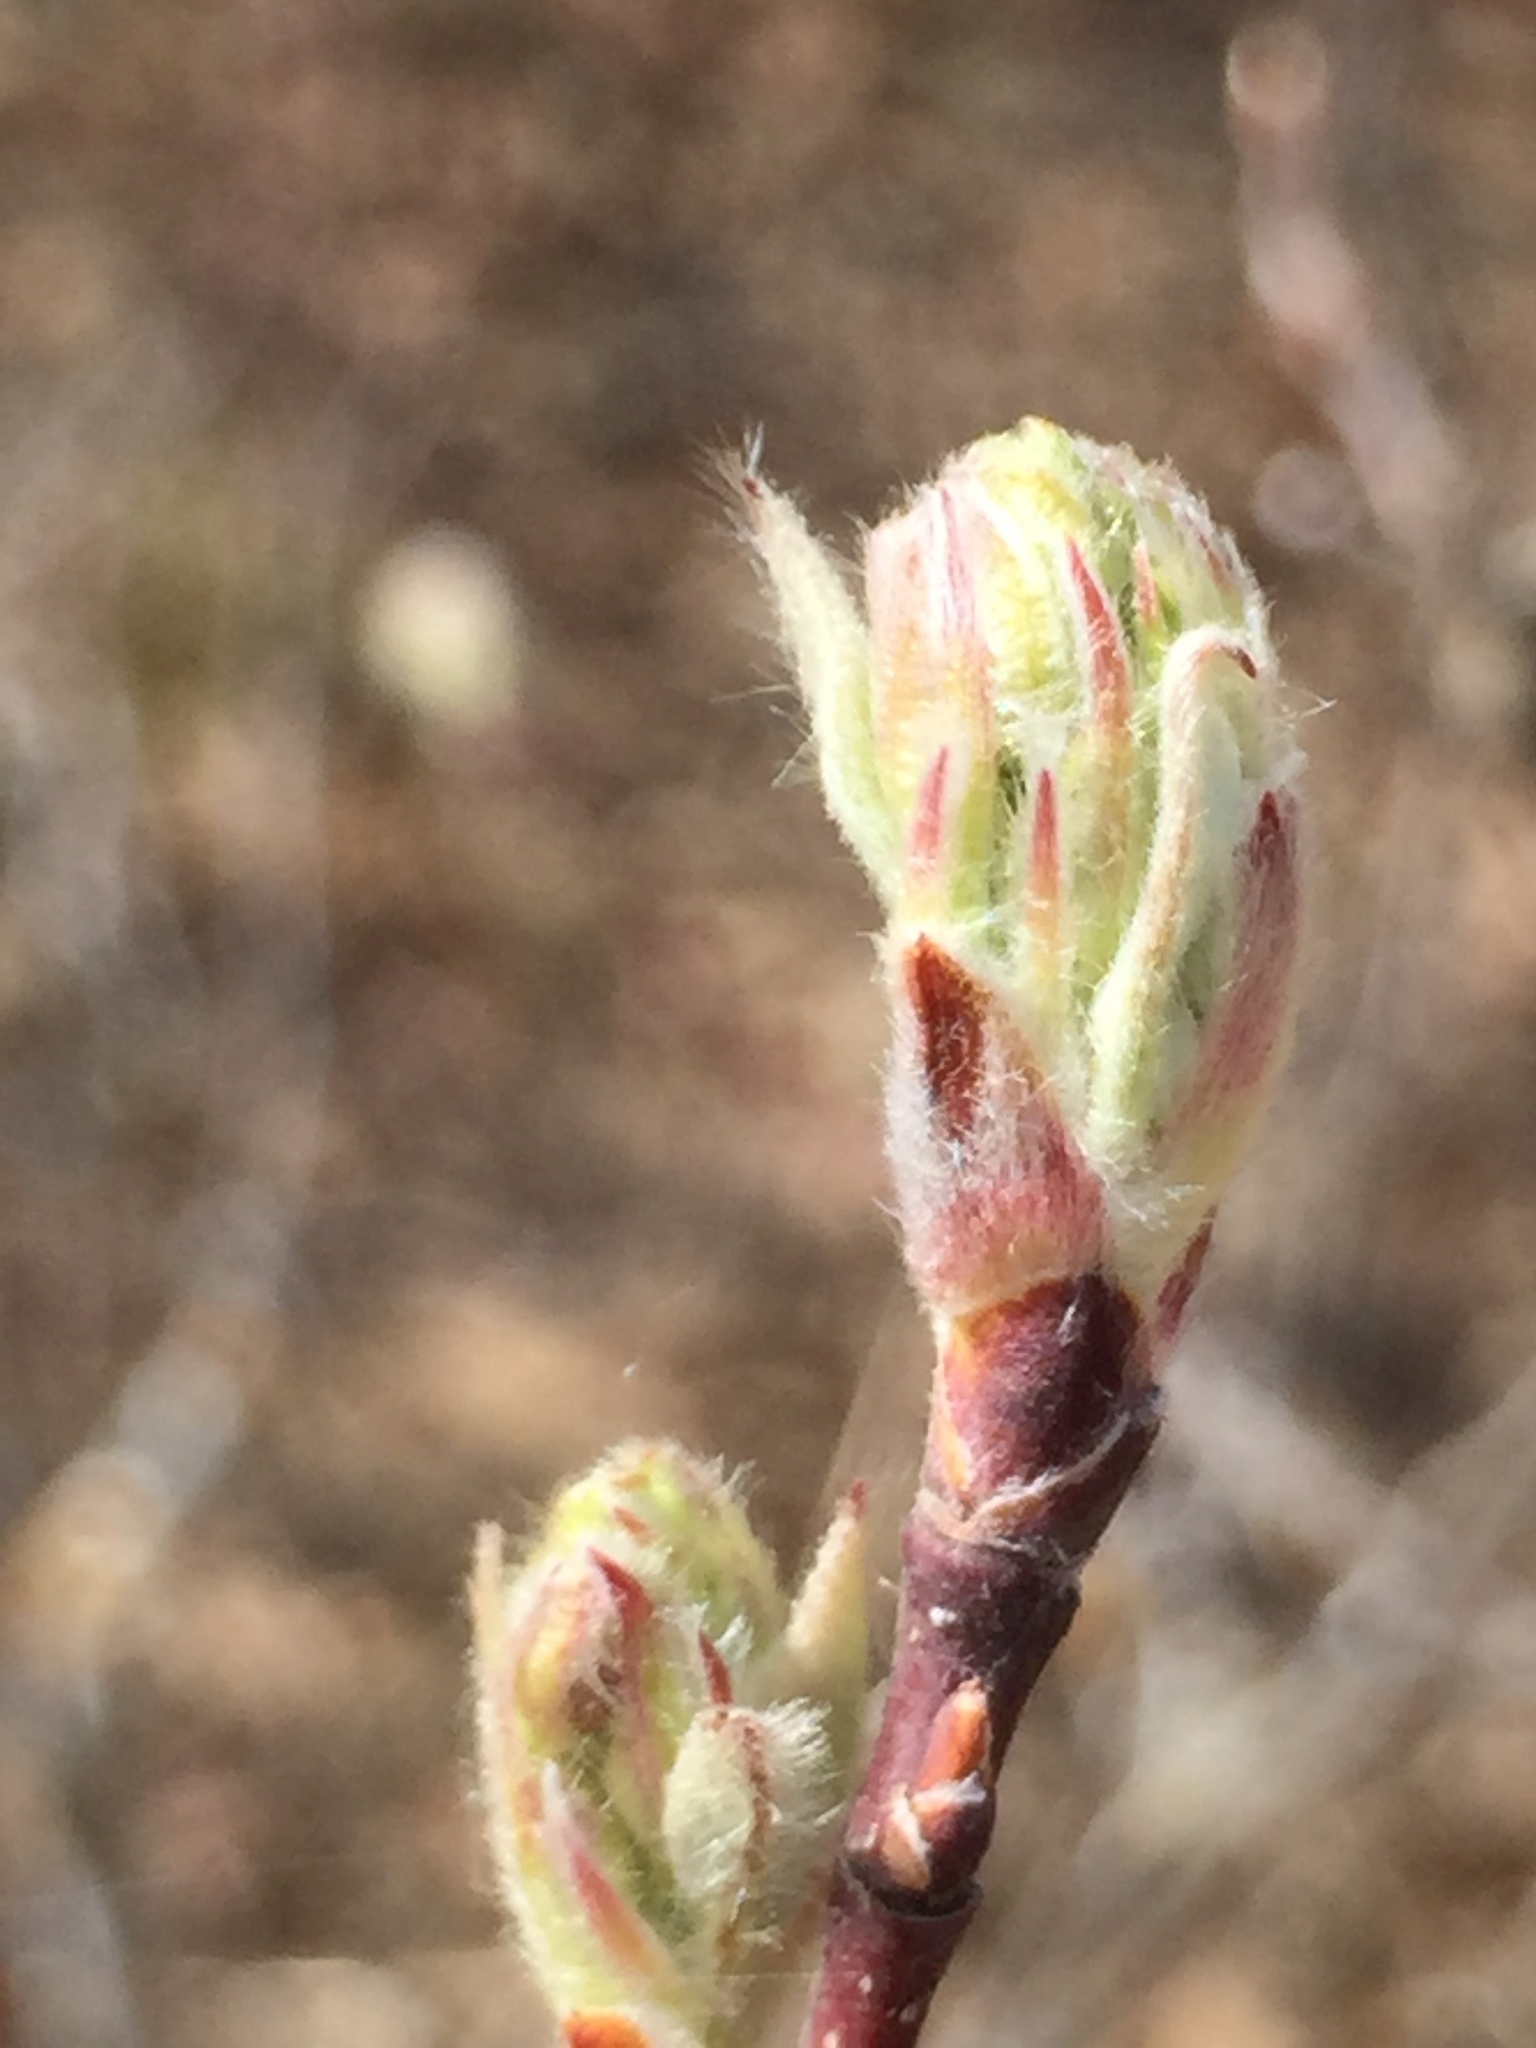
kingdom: Plantae
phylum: Tracheophyta
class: Magnoliopsida
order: Rosales
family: Rosaceae
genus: Amelanchier
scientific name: Amelanchier alnifolia
